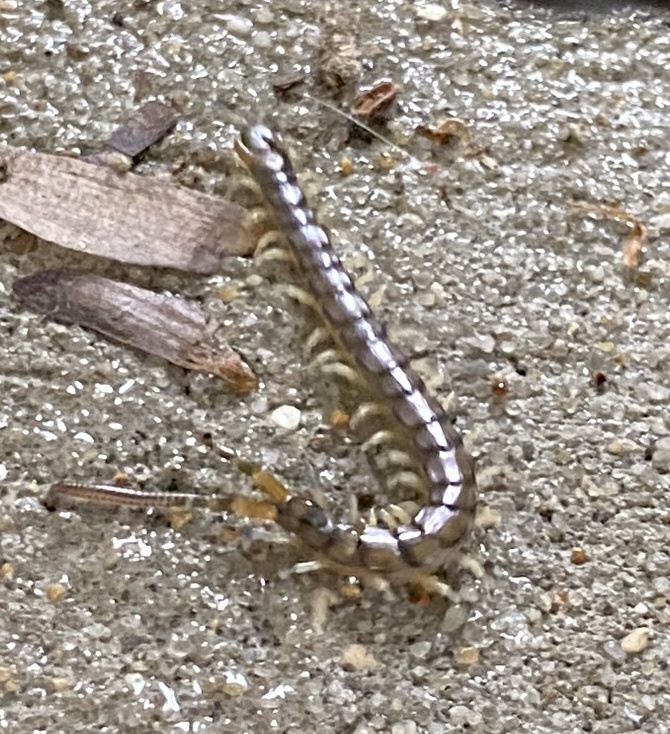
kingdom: Animalia
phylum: Arthropoda
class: Chilopoda
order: Scolopendromorpha
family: Scolopendridae
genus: Hemiscolopendra
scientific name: Hemiscolopendra marginata
